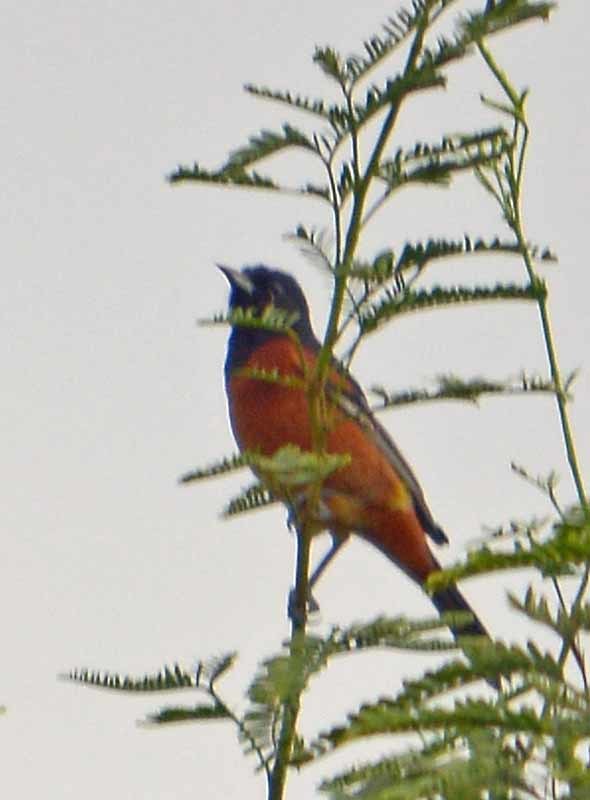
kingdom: Animalia
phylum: Chordata
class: Aves
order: Passeriformes
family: Icteridae
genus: Icterus
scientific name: Icterus spurius
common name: Orchard oriole
